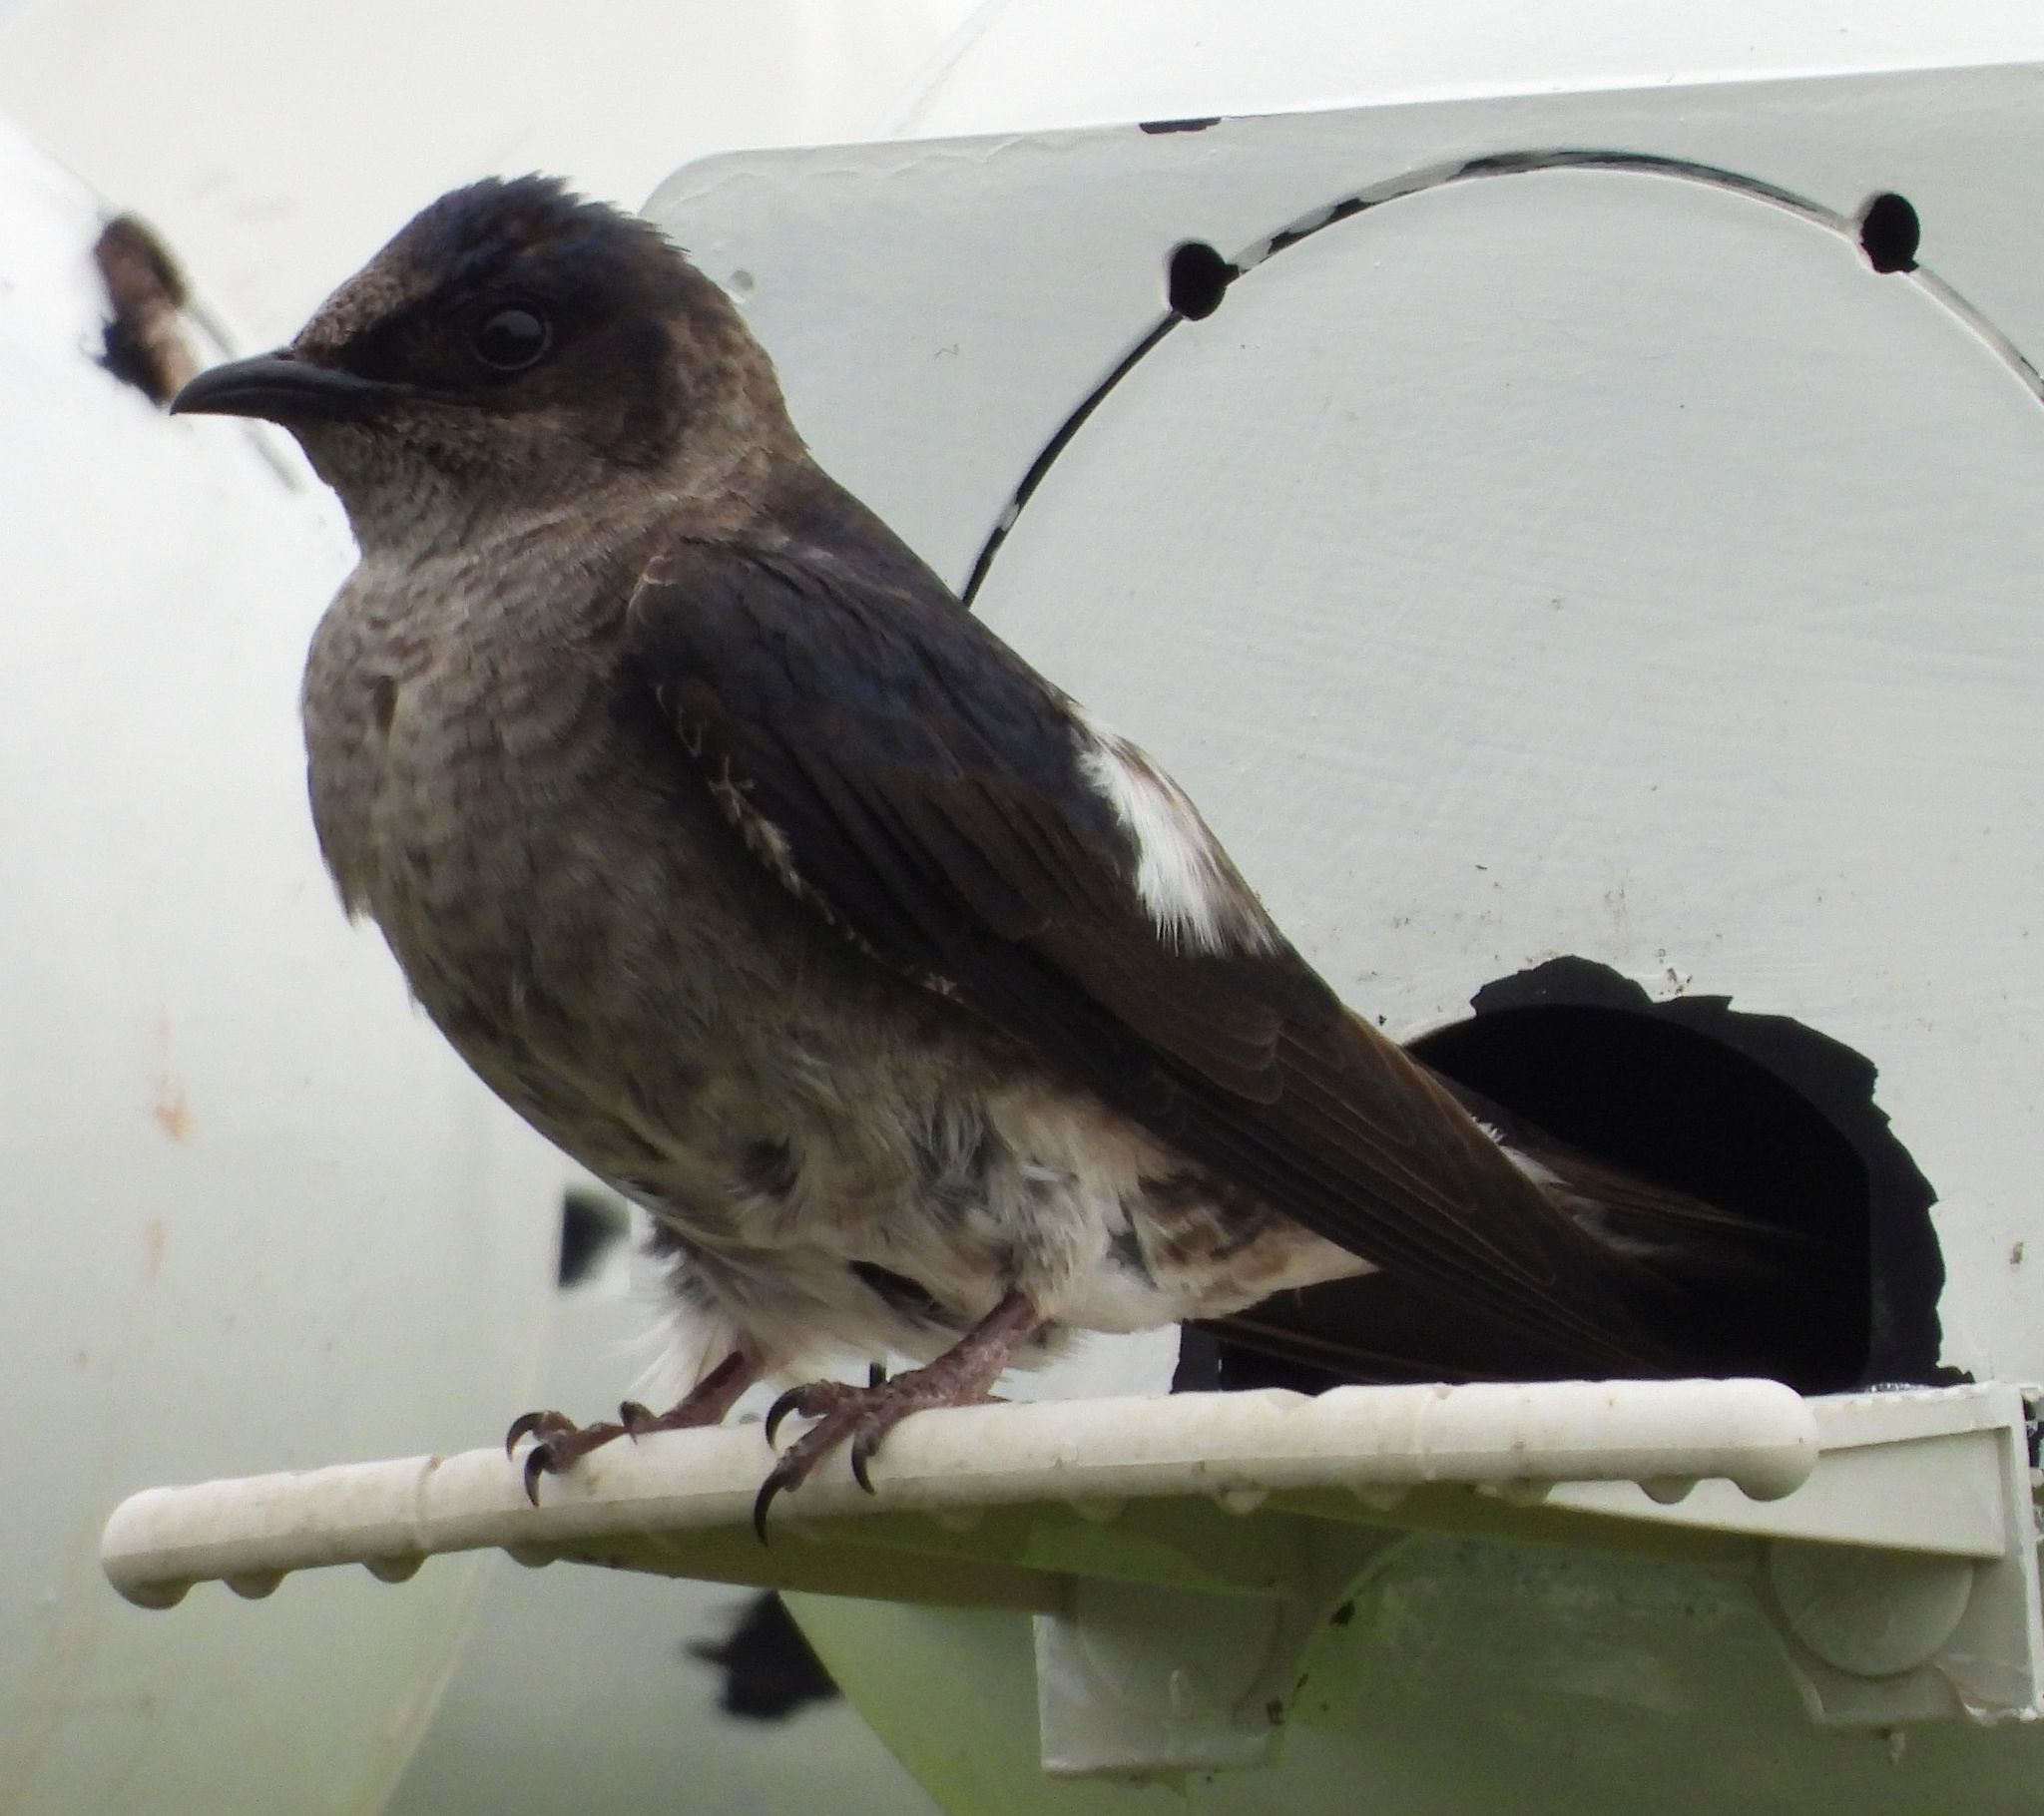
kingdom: Animalia
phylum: Chordata
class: Aves
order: Passeriformes
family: Hirundinidae
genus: Progne
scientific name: Progne subis
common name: Purple martin
